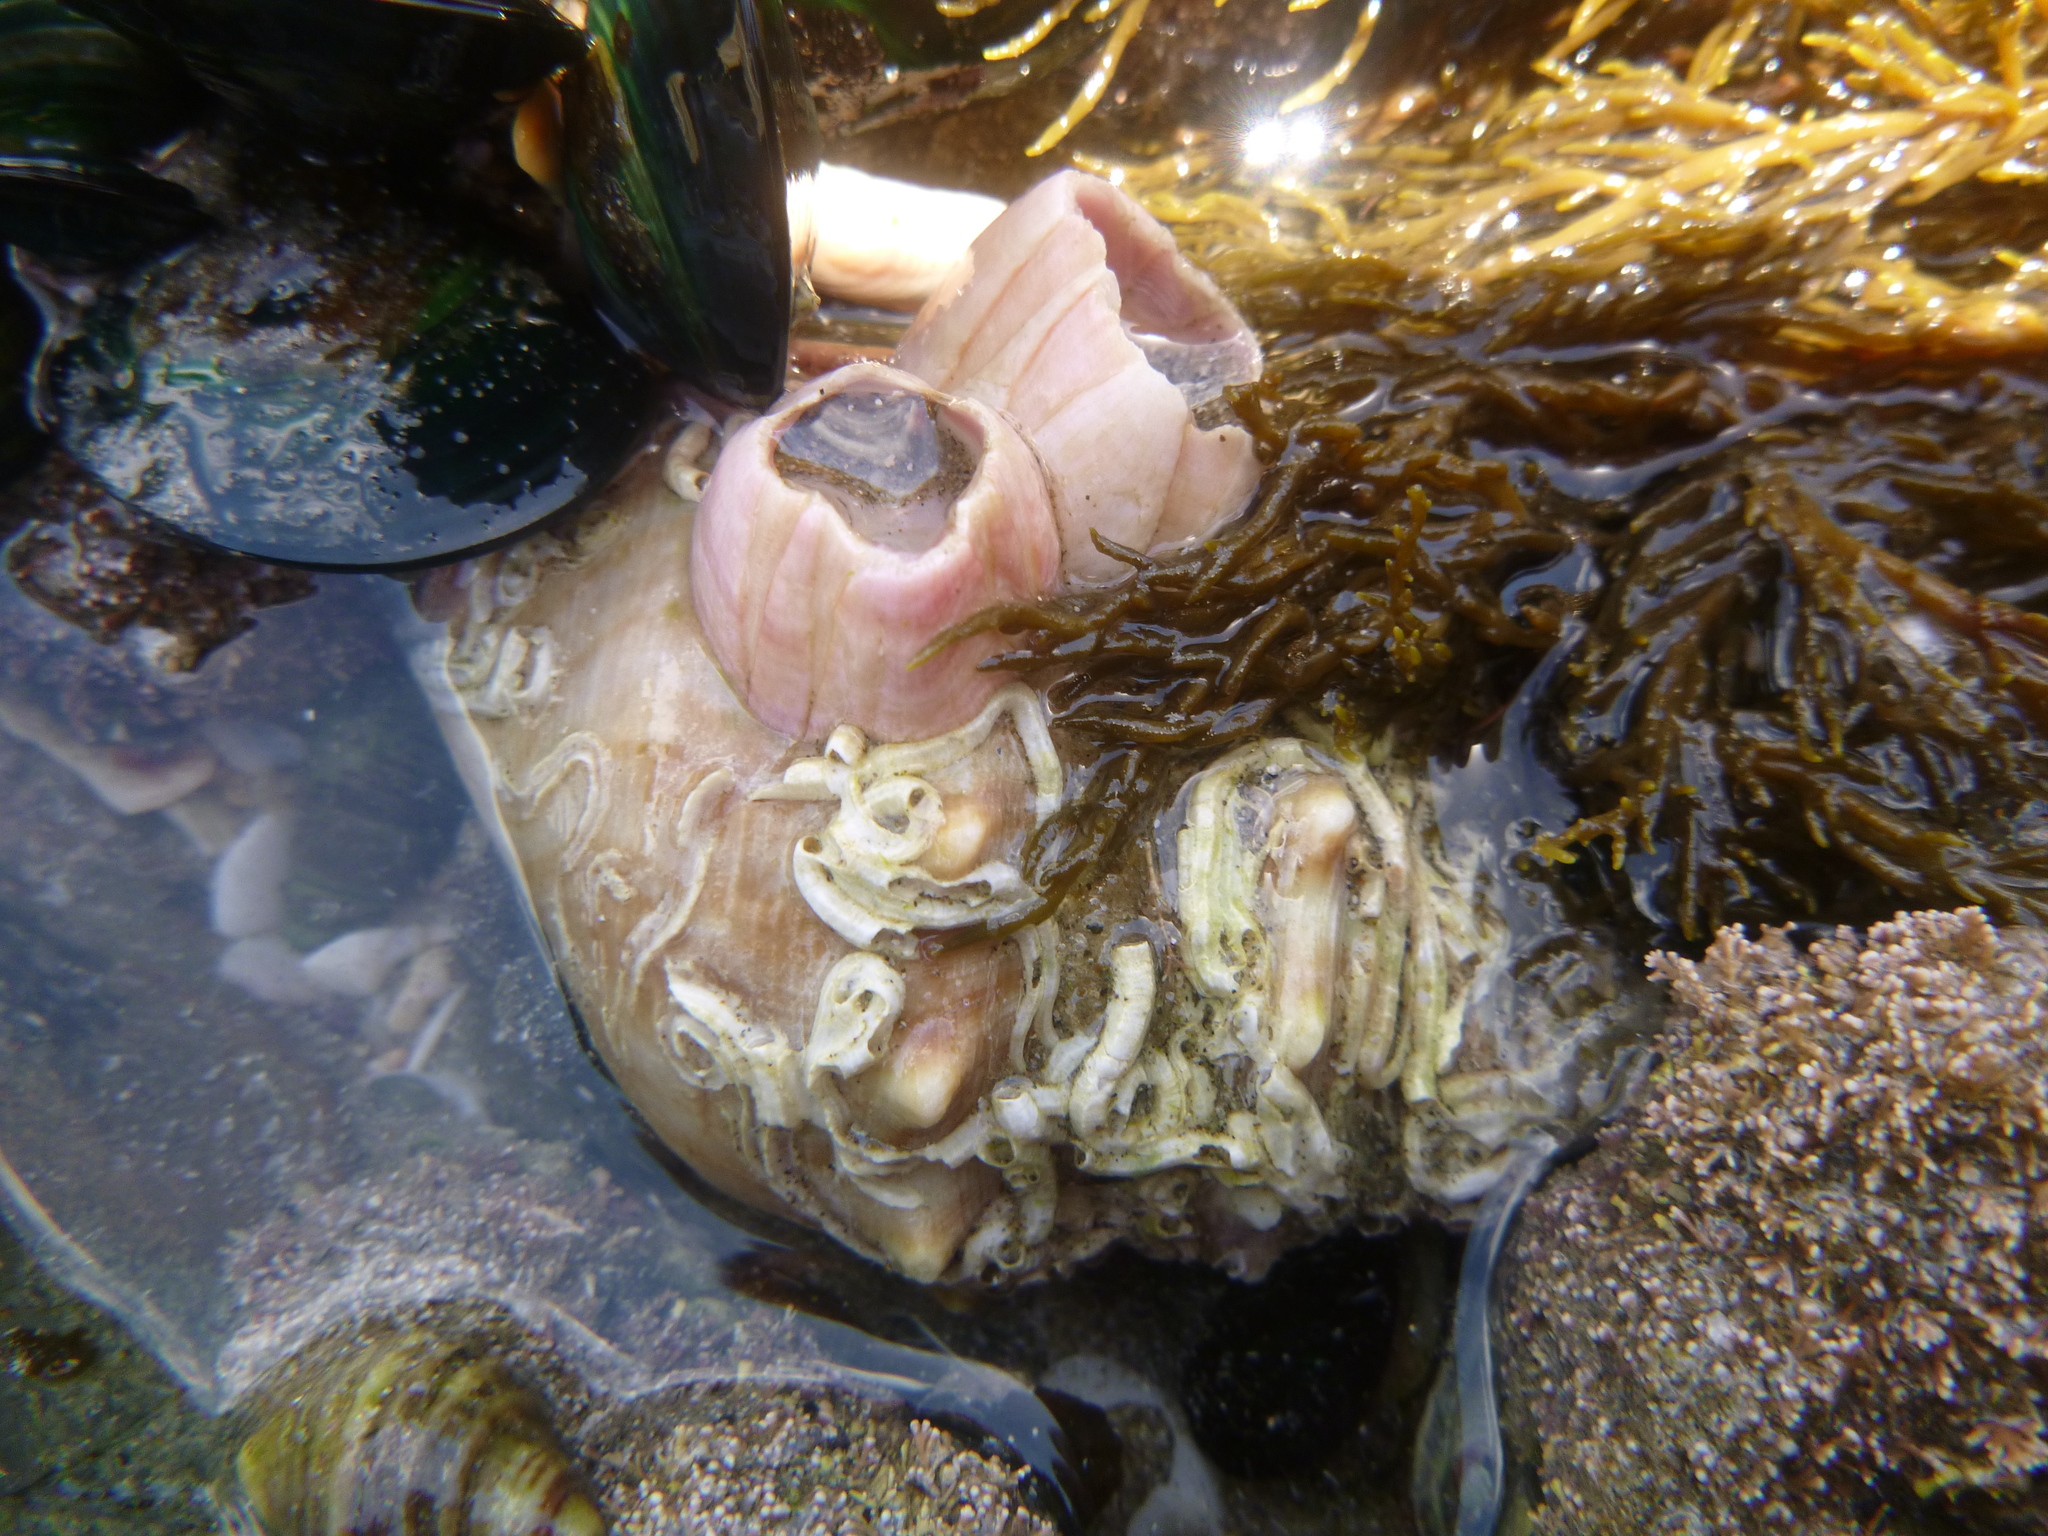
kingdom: Animalia
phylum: Arthropoda
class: Maxillopoda
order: Sessilia
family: Balanidae
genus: Notomegabalanus
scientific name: Notomegabalanus decorus
